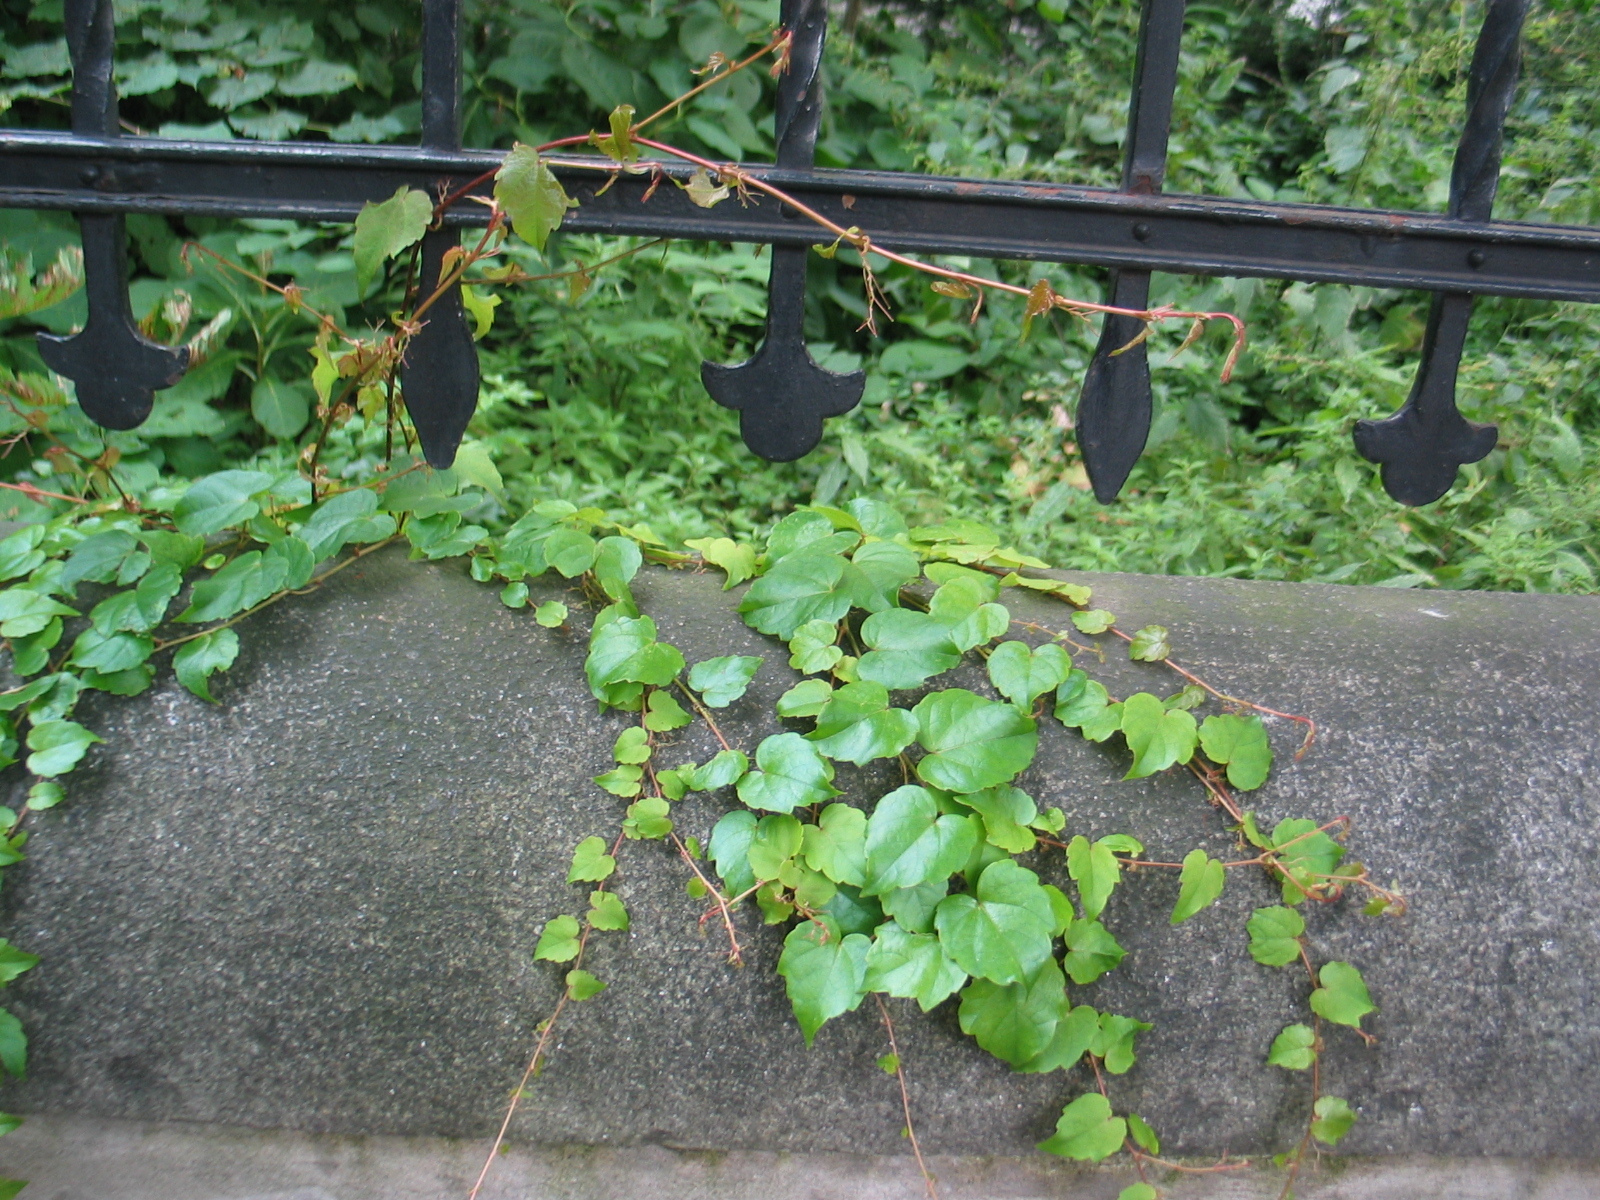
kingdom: Plantae
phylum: Tracheophyta
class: Magnoliopsida
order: Vitales
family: Vitaceae
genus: Parthenocissus
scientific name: Parthenocissus tricuspidata
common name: Boston ivy
